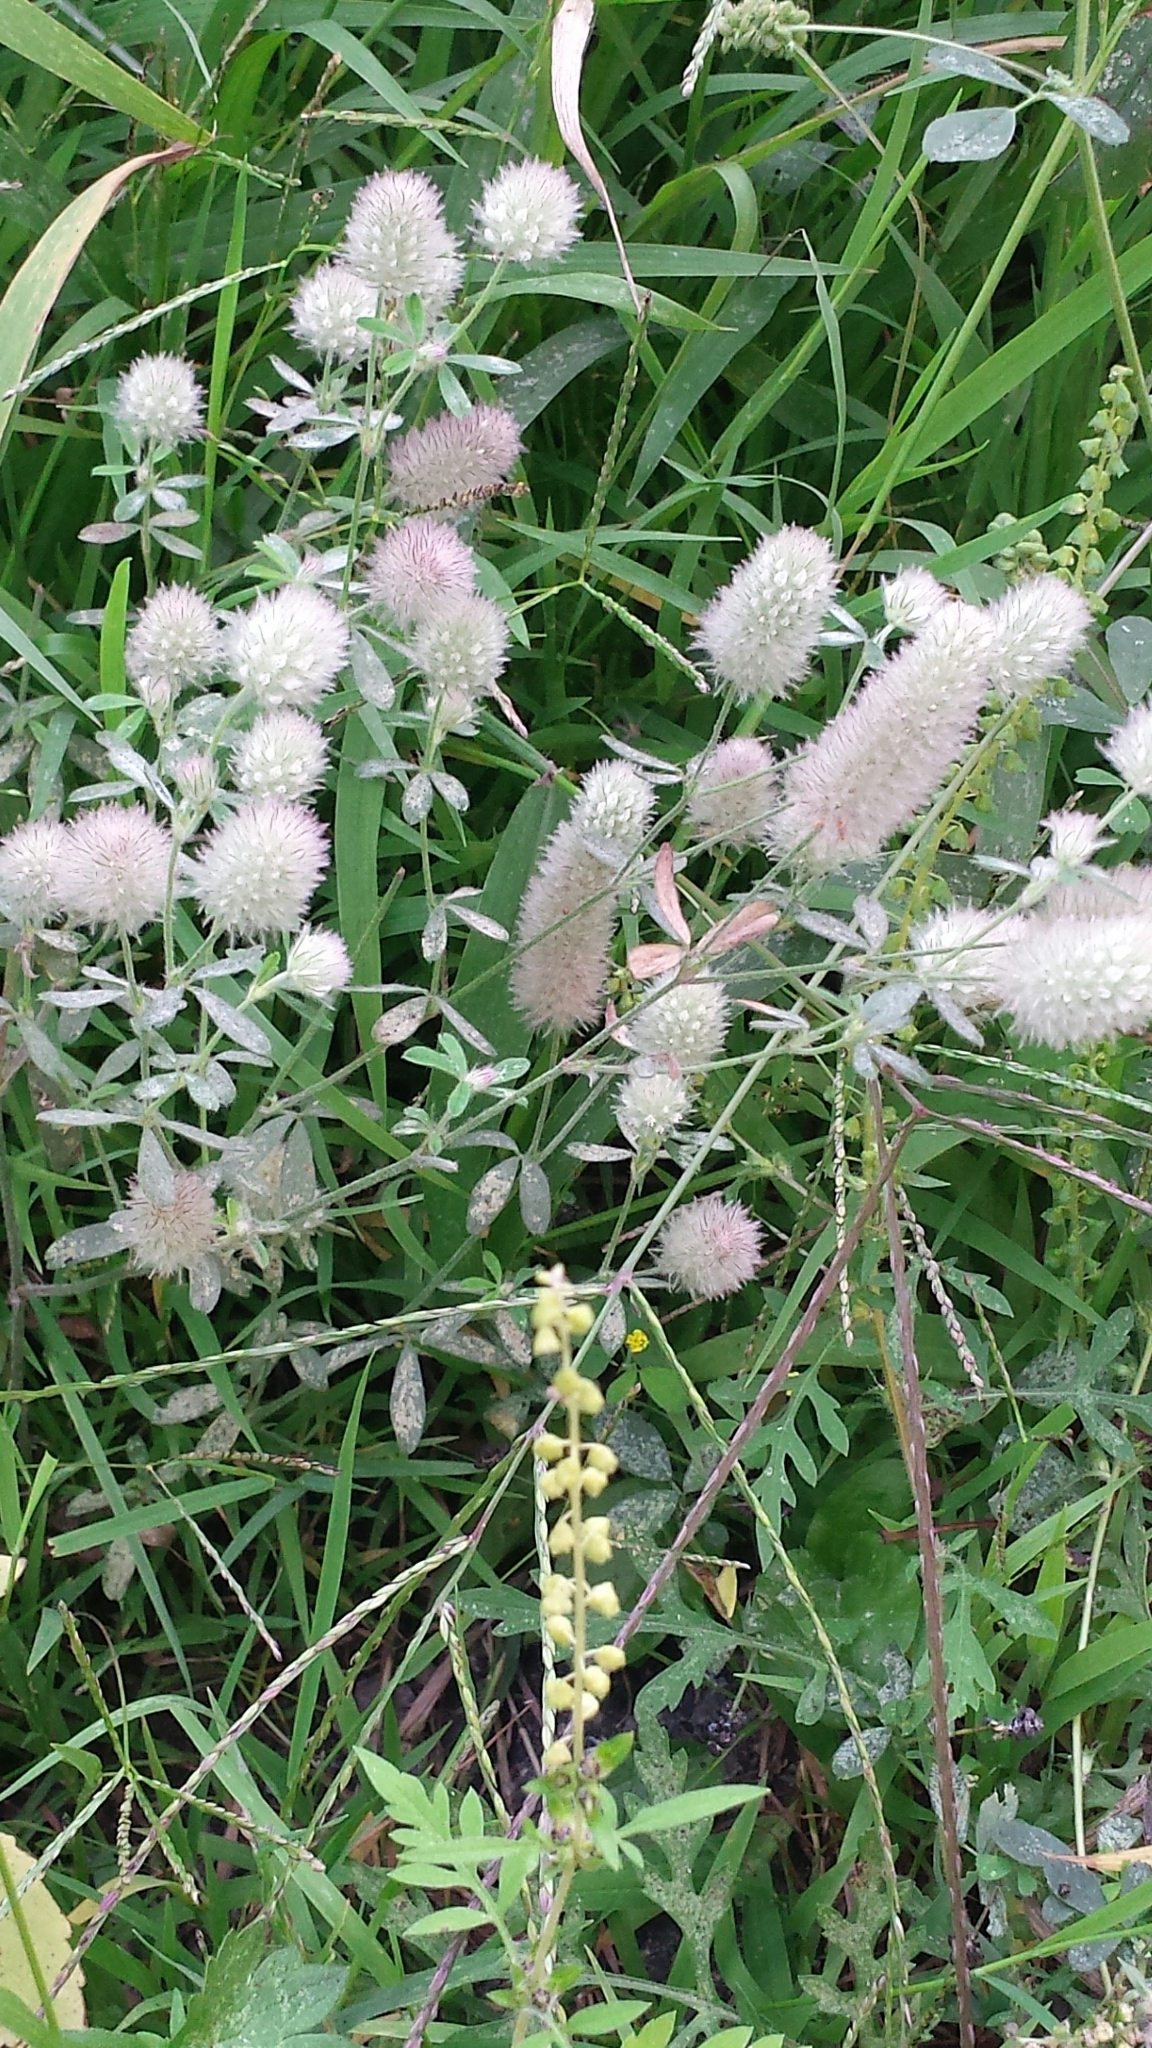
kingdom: Plantae
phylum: Tracheophyta
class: Magnoliopsida
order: Fabales
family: Fabaceae
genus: Trifolium
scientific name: Trifolium arvense
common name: Hare's-foot clover
